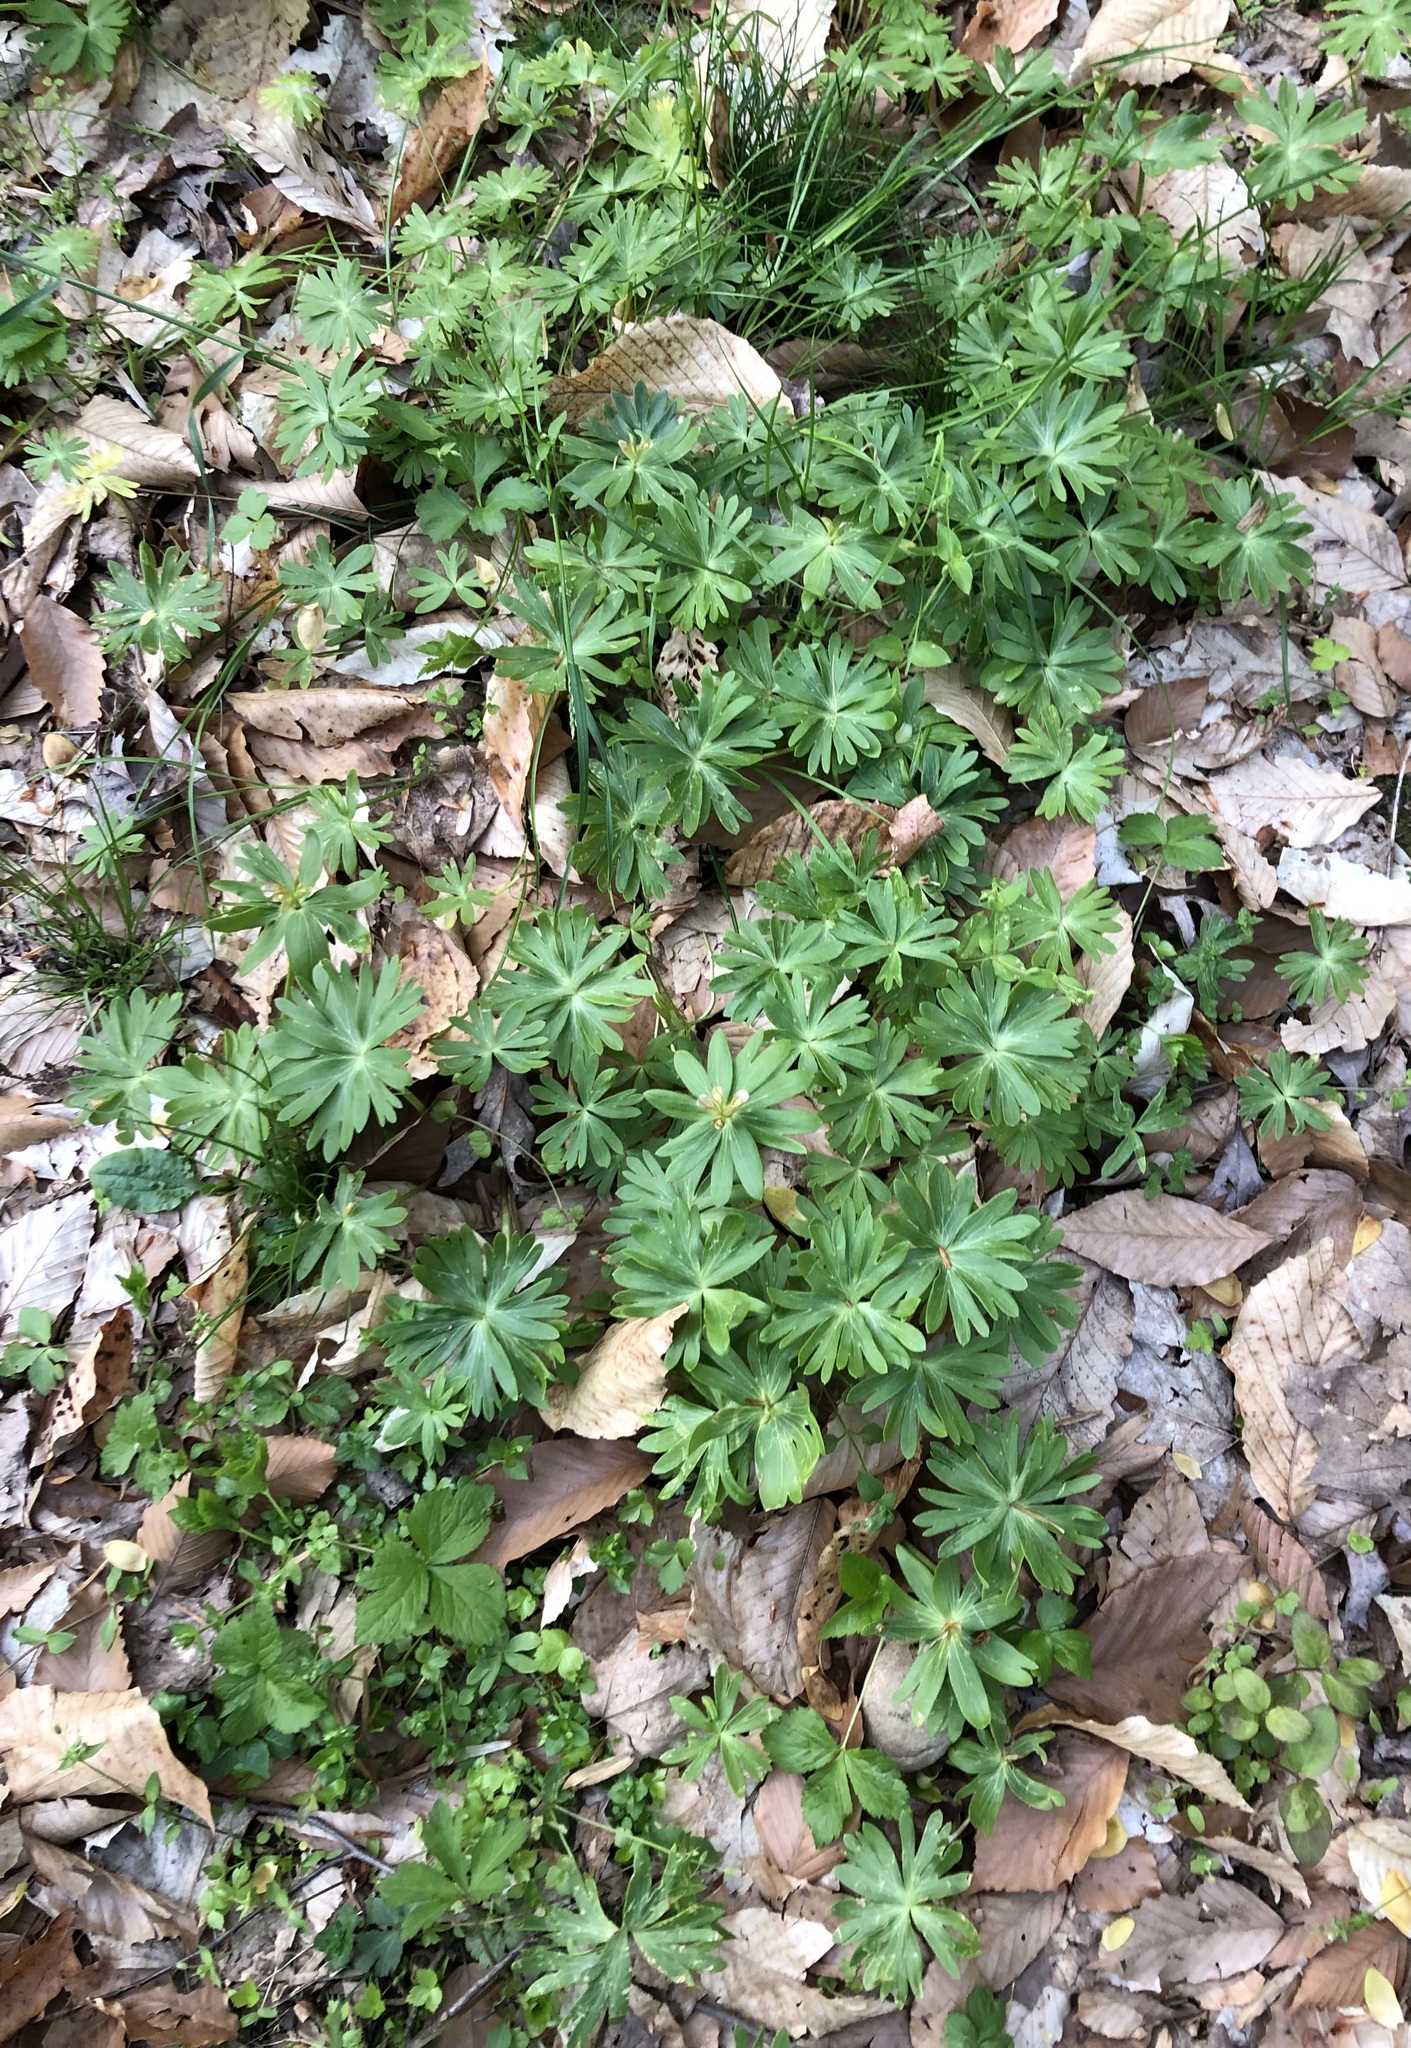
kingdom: Plantae
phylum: Tracheophyta
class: Magnoliopsida
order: Ranunculales
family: Ranunculaceae
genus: Eranthis
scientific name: Eranthis hyemalis
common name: Winter aconite
